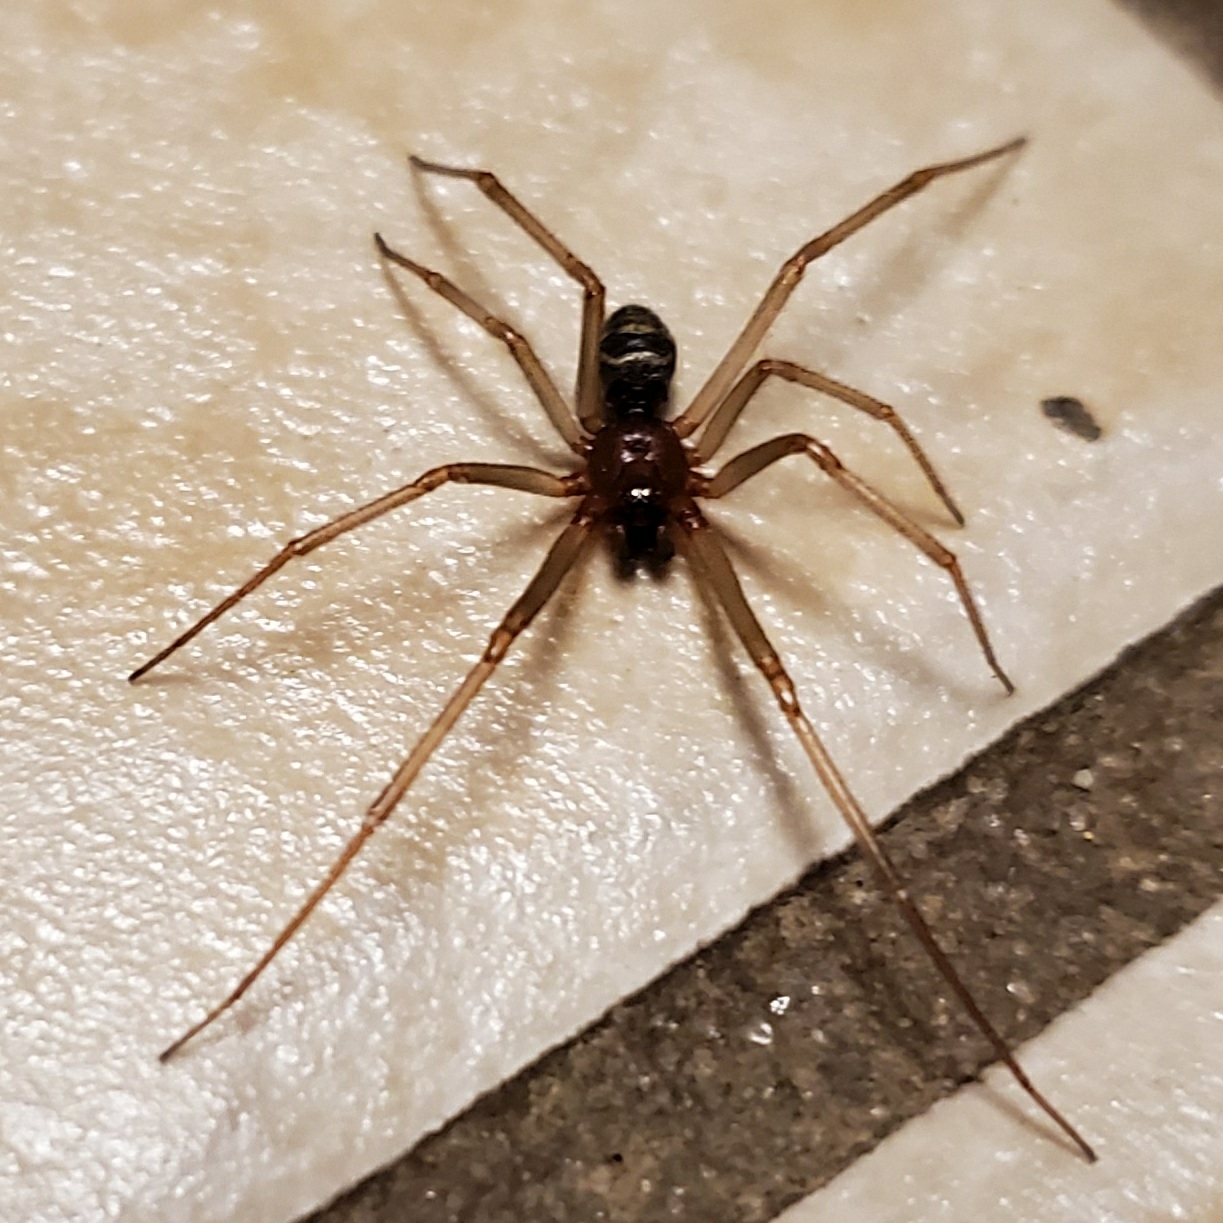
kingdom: Animalia
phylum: Arthropoda
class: Arachnida
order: Araneae
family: Theridiidae
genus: Steatoda
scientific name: Steatoda grossa
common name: False black widow
